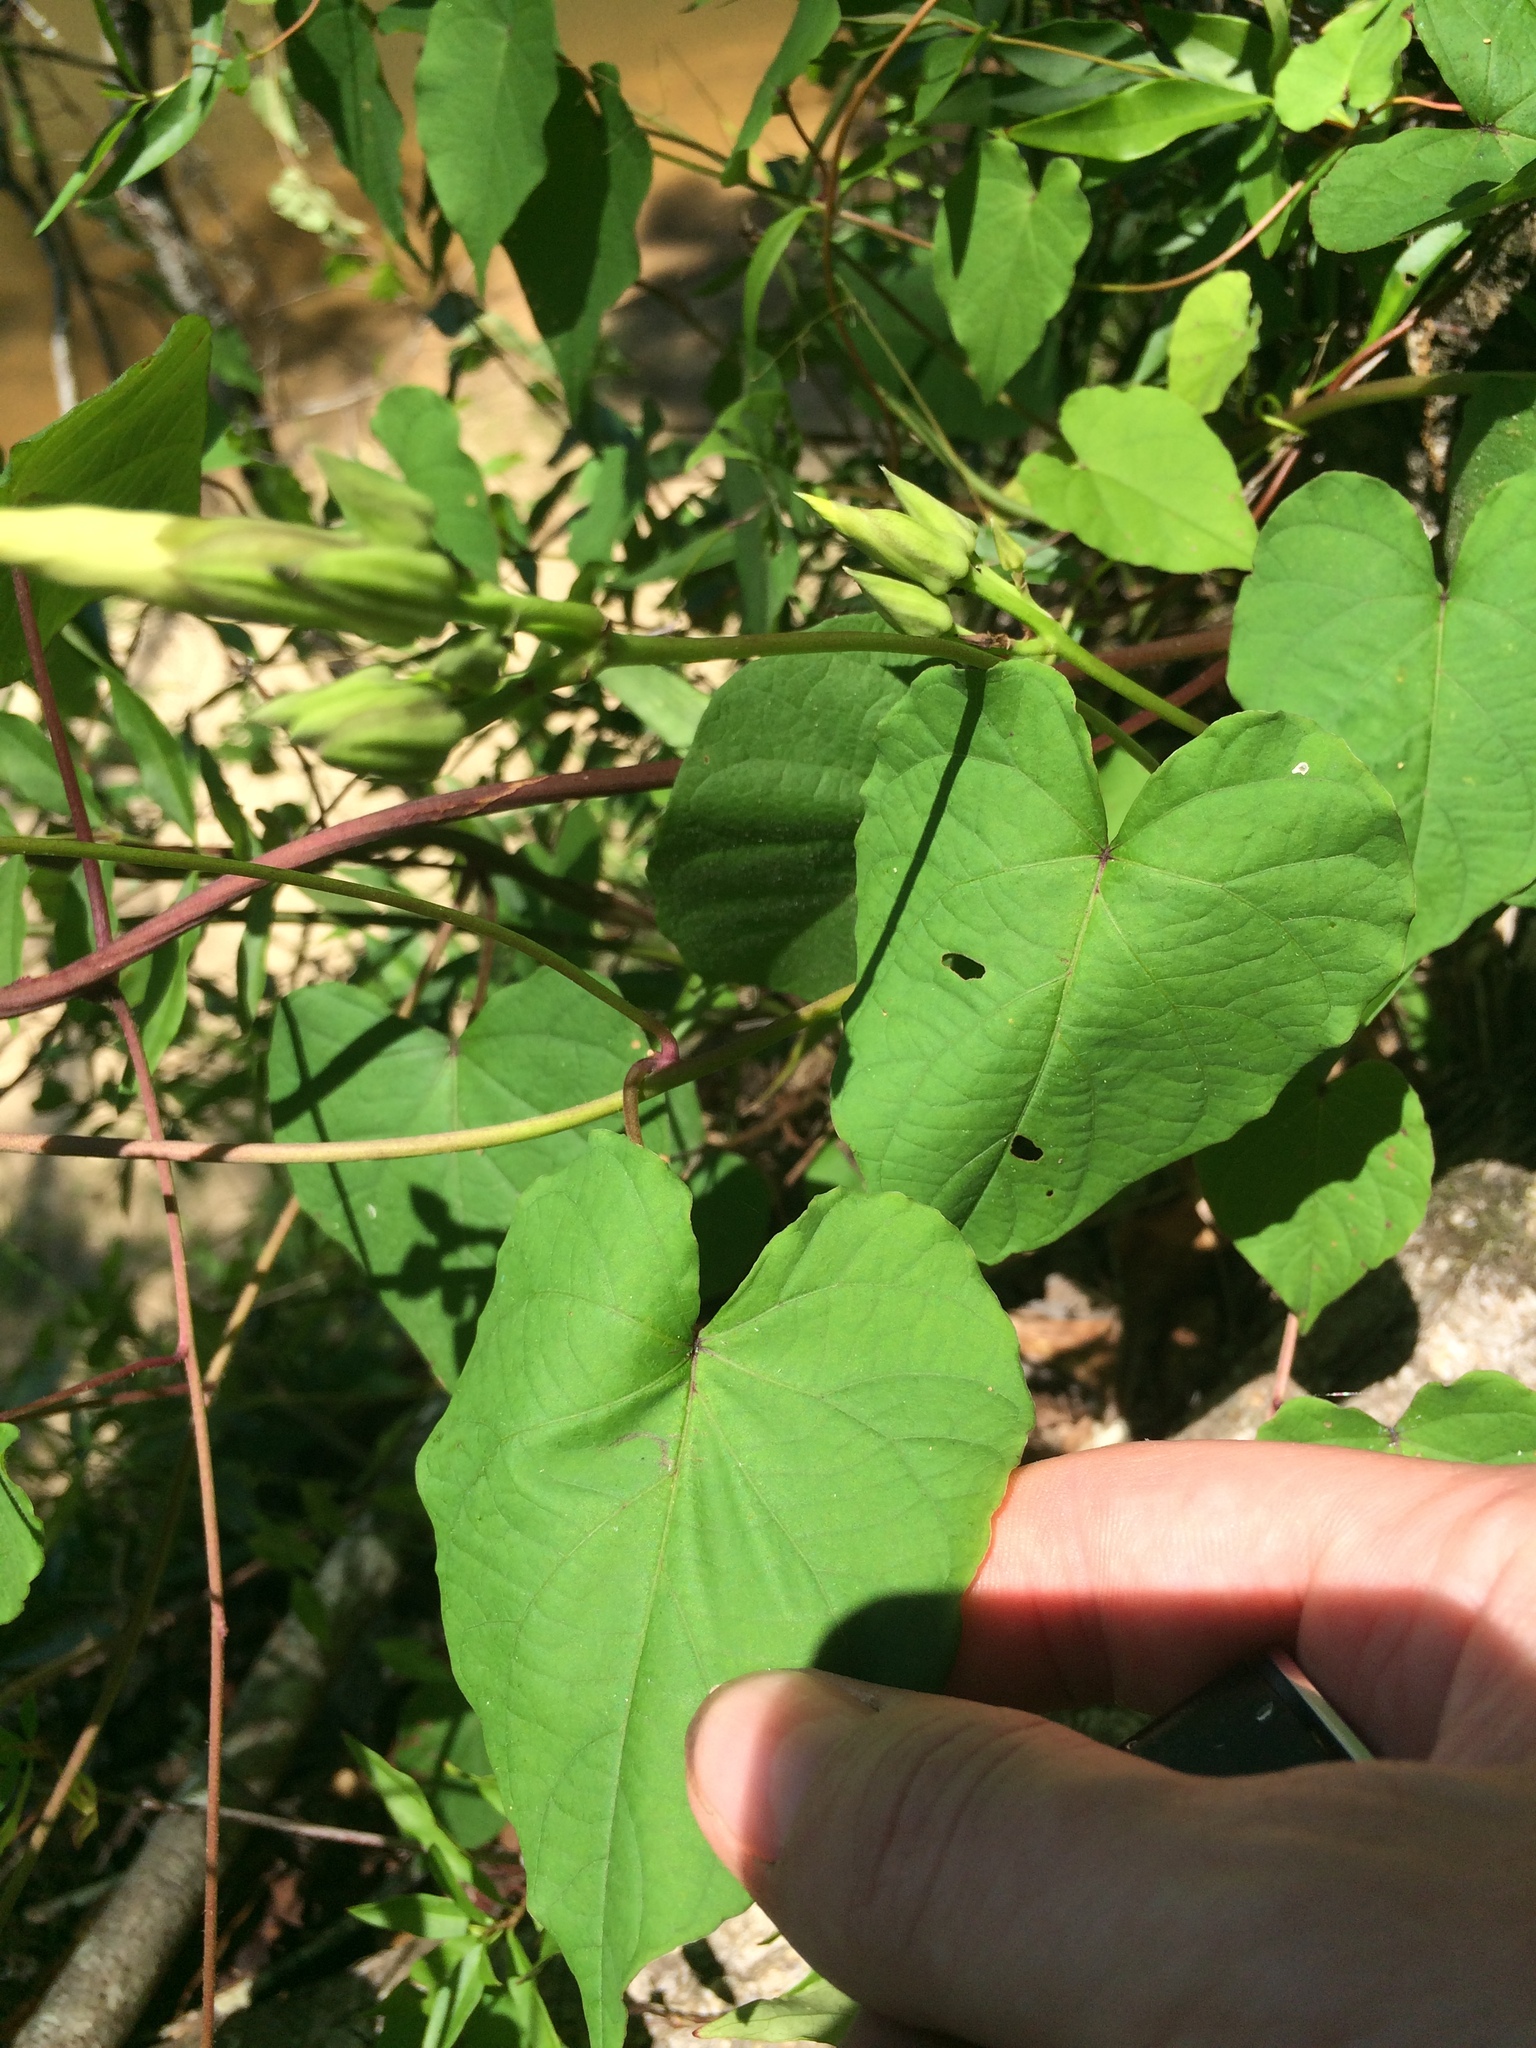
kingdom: Plantae
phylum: Tracheophyta
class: Magnoliopsida
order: Solanales
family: Convolvulaceae
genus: Ipomoea
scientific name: Ipomoea pandurata
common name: Man-of-the-earth
